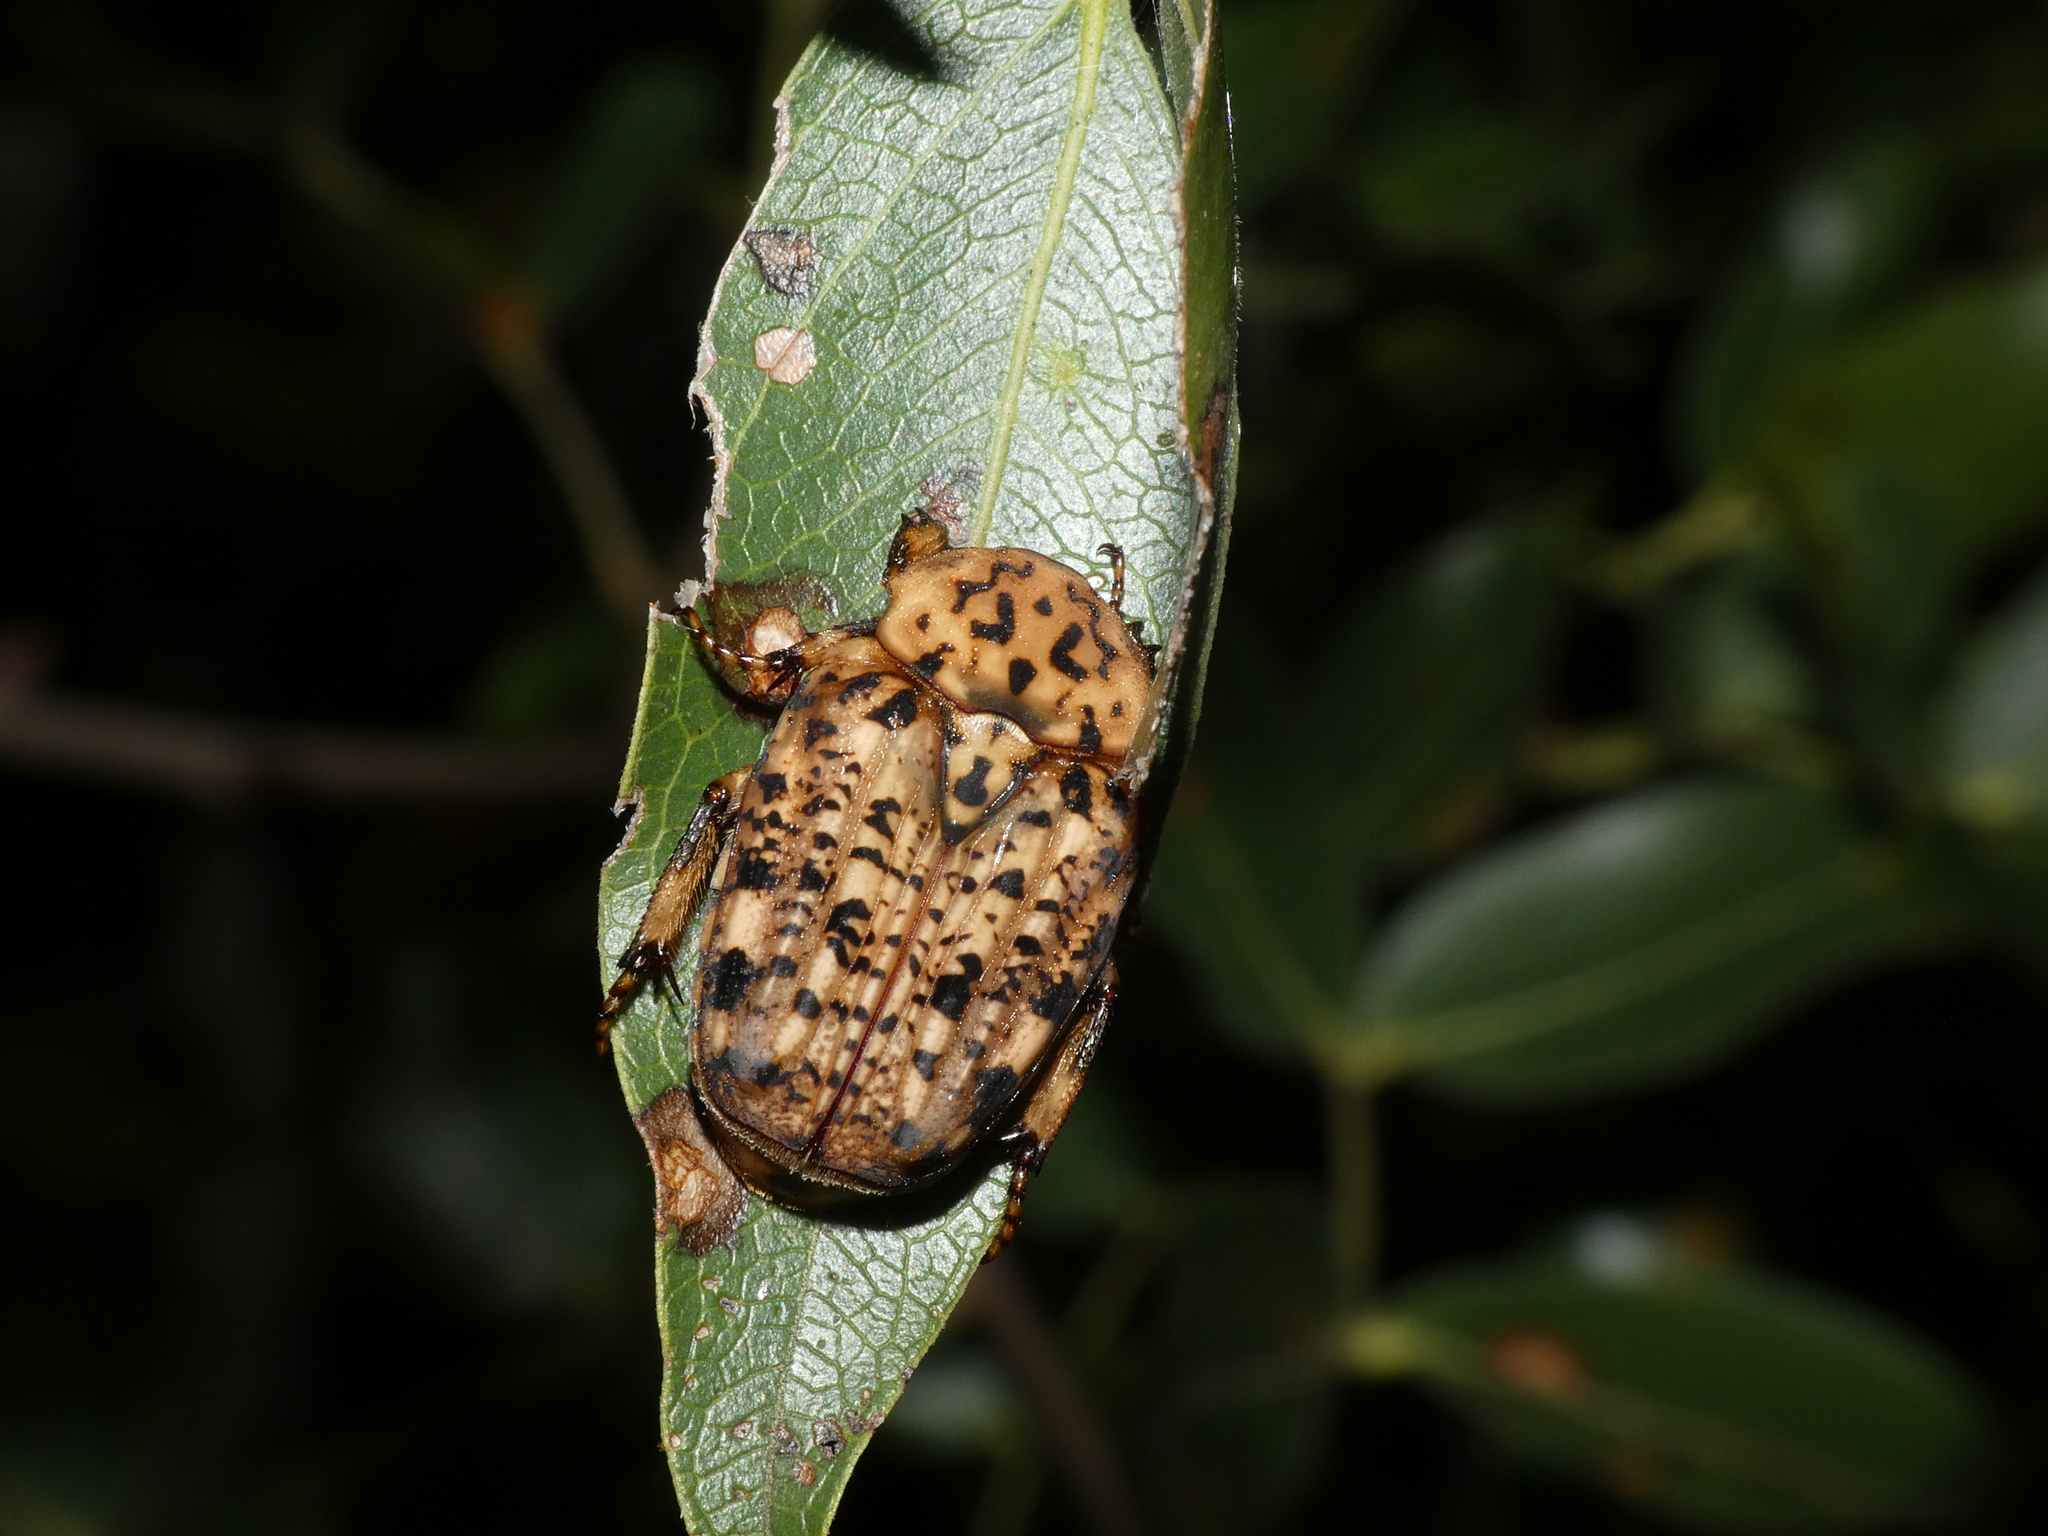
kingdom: Animalia
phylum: Arthropoda
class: Insecta
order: Coleoptera
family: Scarabaeidae
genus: Porphyronota
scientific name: Porphyronota maculatissima
